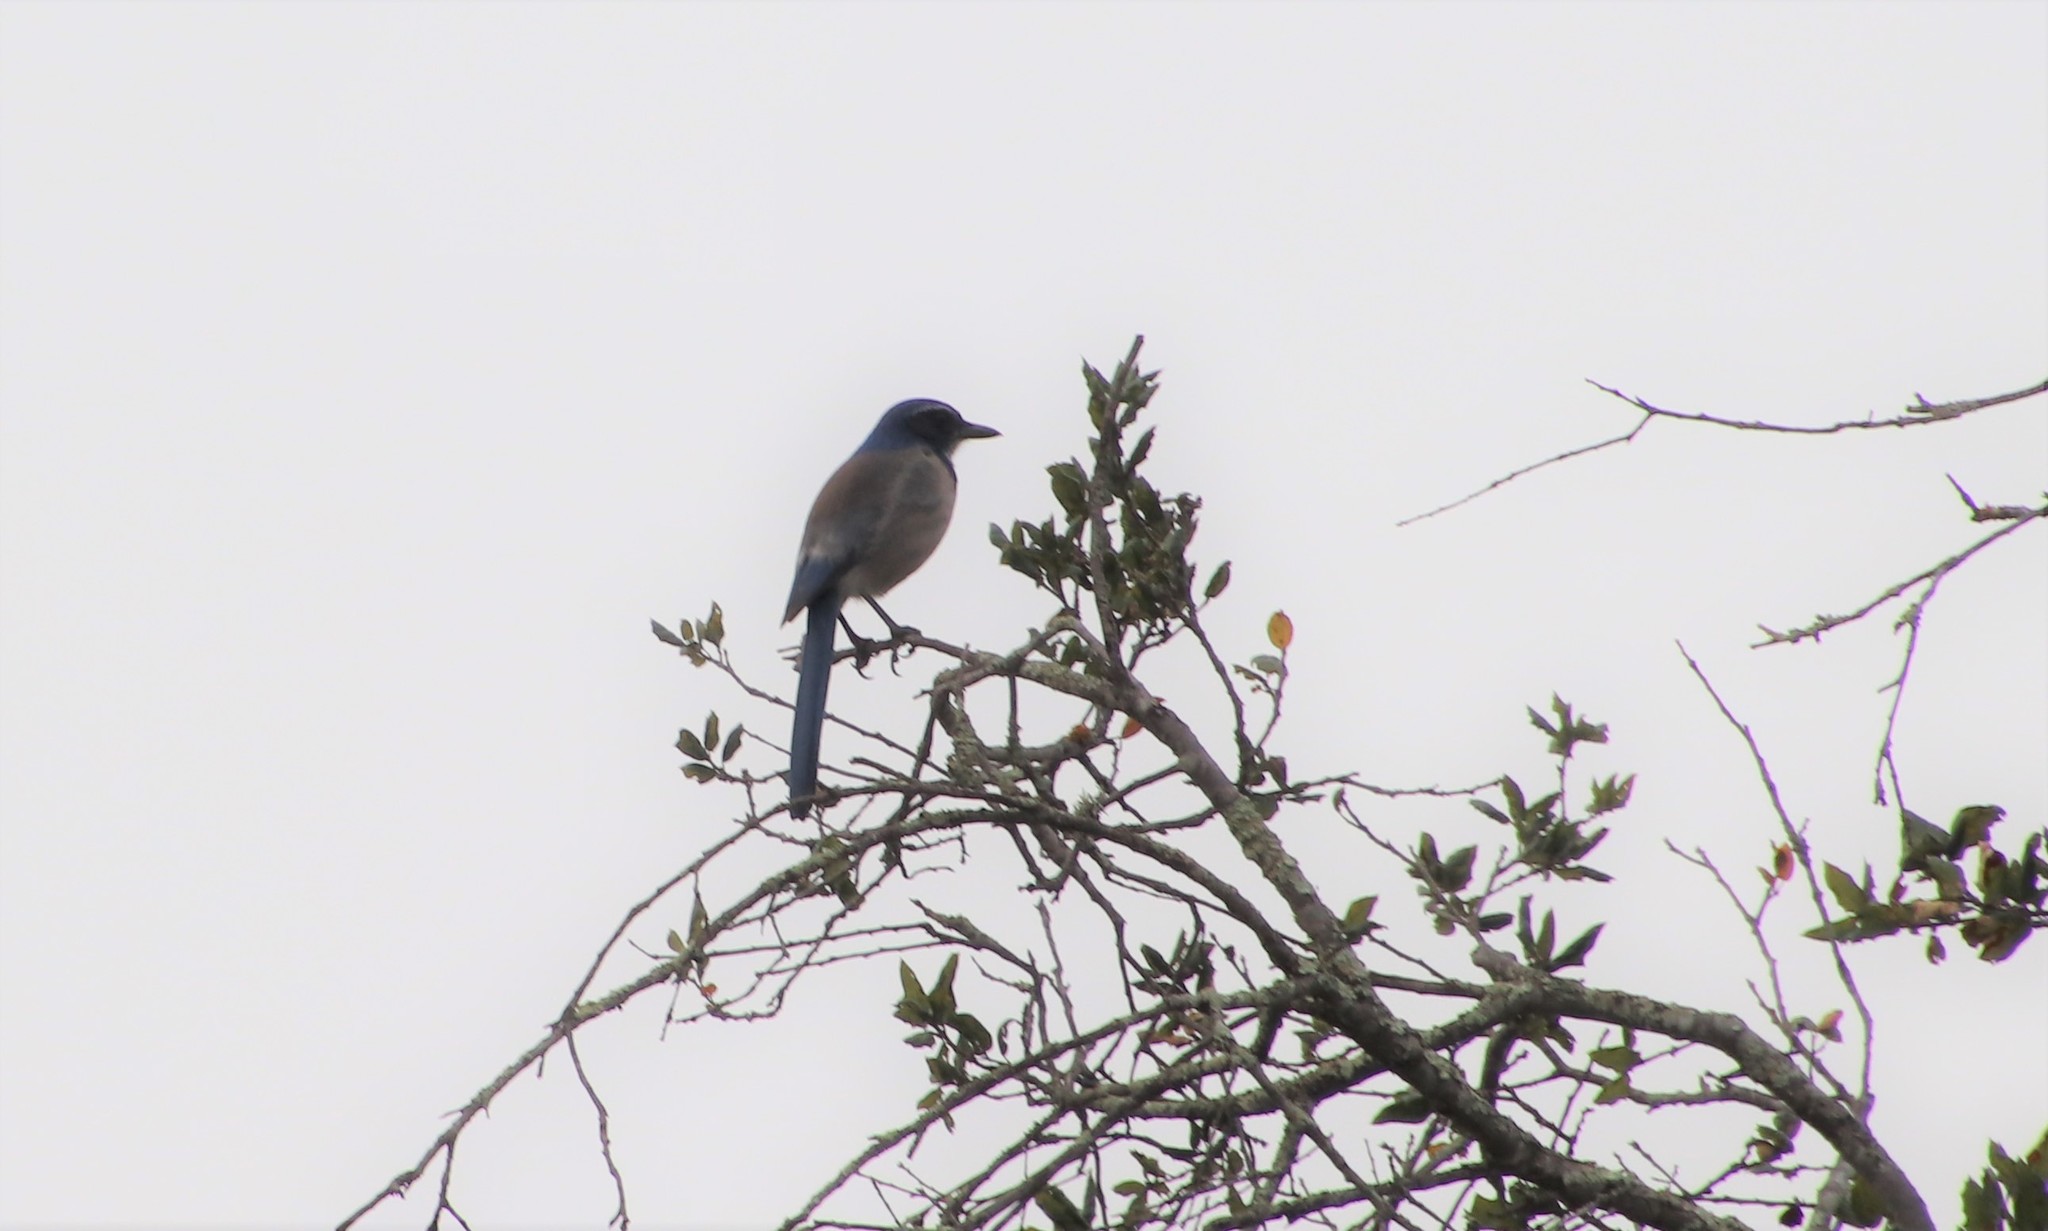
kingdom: Animalia
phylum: Chordata
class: Aves
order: Passeriformes
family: Corvidae
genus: Aphelocoma
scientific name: Aphelocoma californica
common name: California scrub-jay
